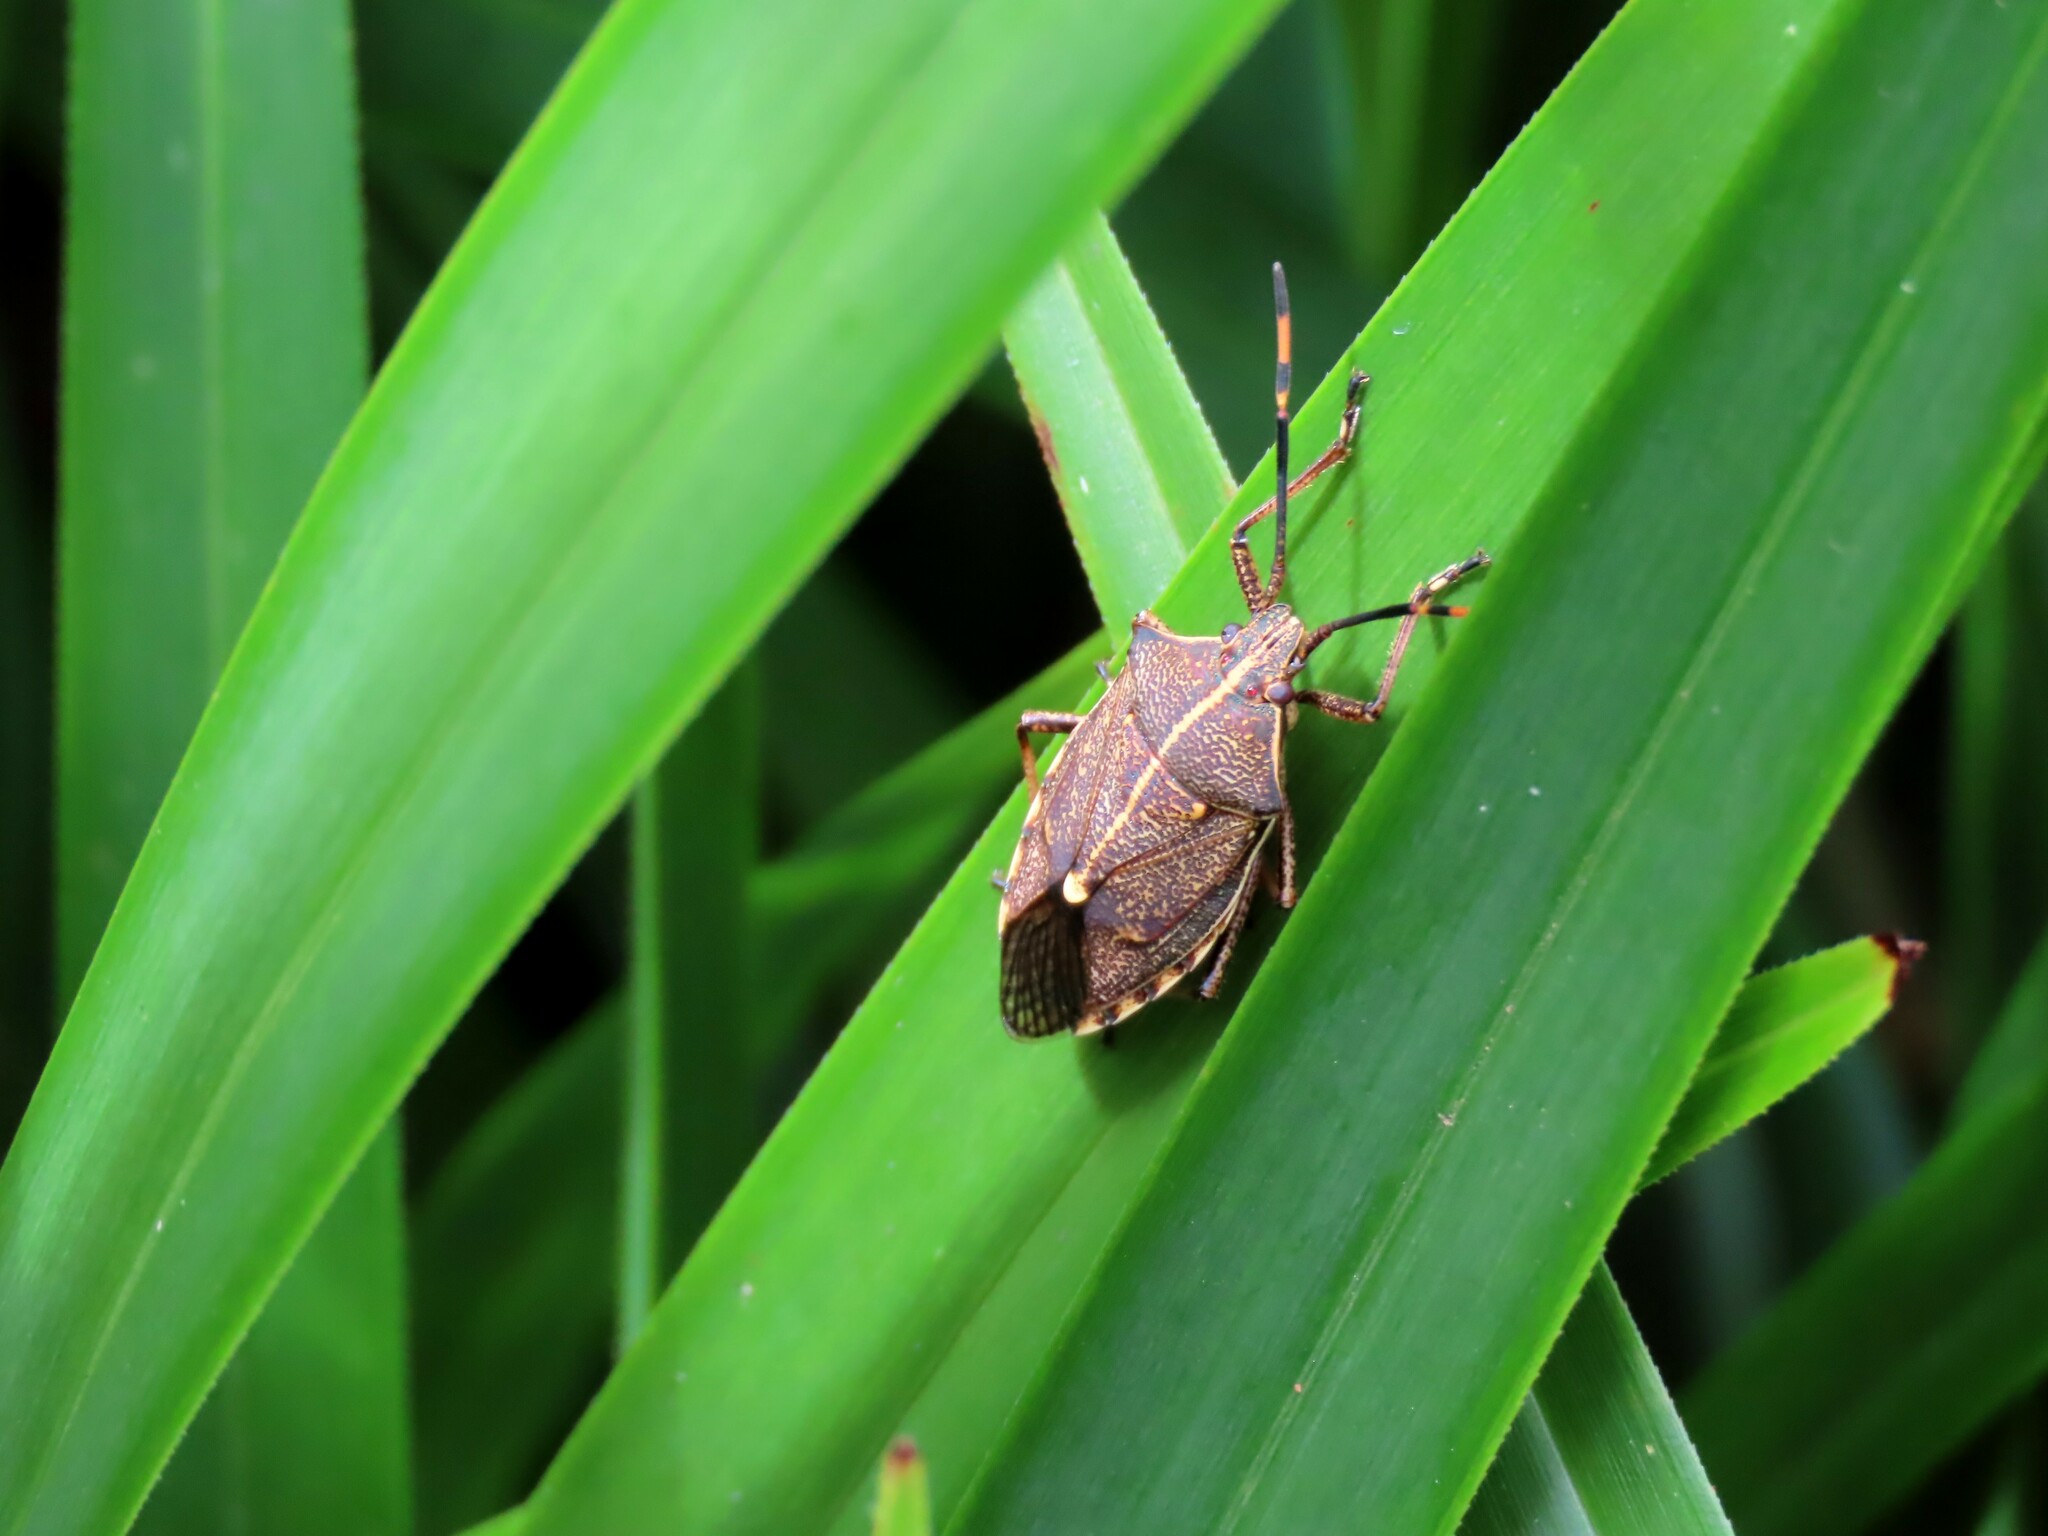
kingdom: Animalia
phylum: Arthropoda
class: Insecta
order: Hemiptera
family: Pentatomidae
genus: Omyta
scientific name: Omyta centrolineata
